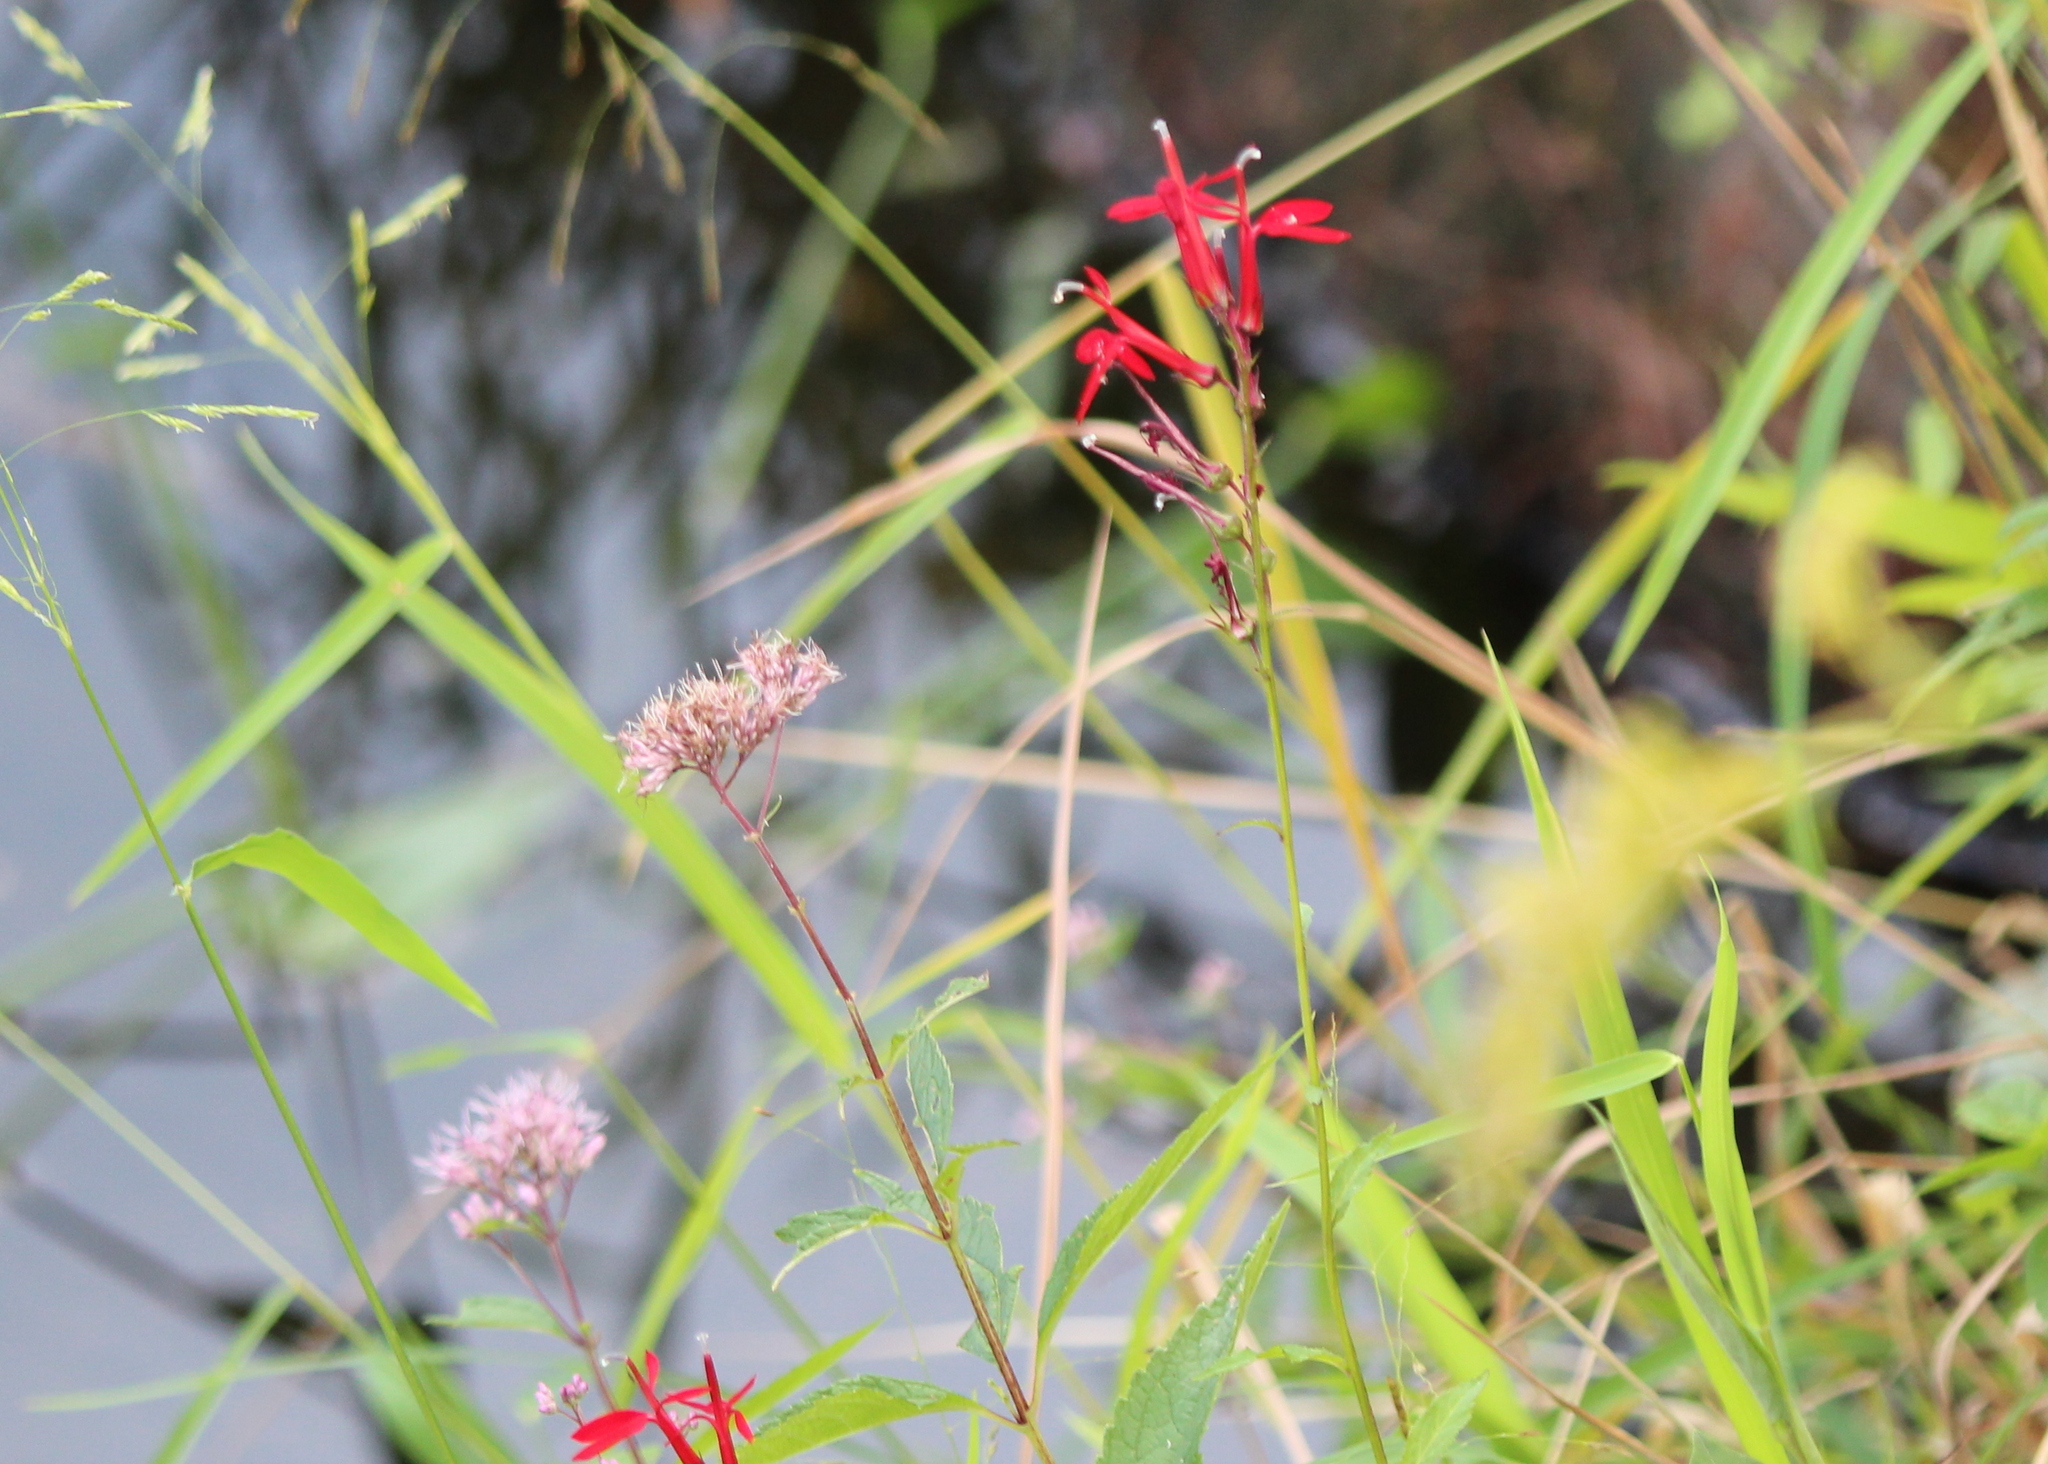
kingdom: Plantae
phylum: Tracheophyta
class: Magnoliopsida
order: Asterales
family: Campanulaceae
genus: Lobelia
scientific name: Lobelia cardinalis
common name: Cardinal flower
